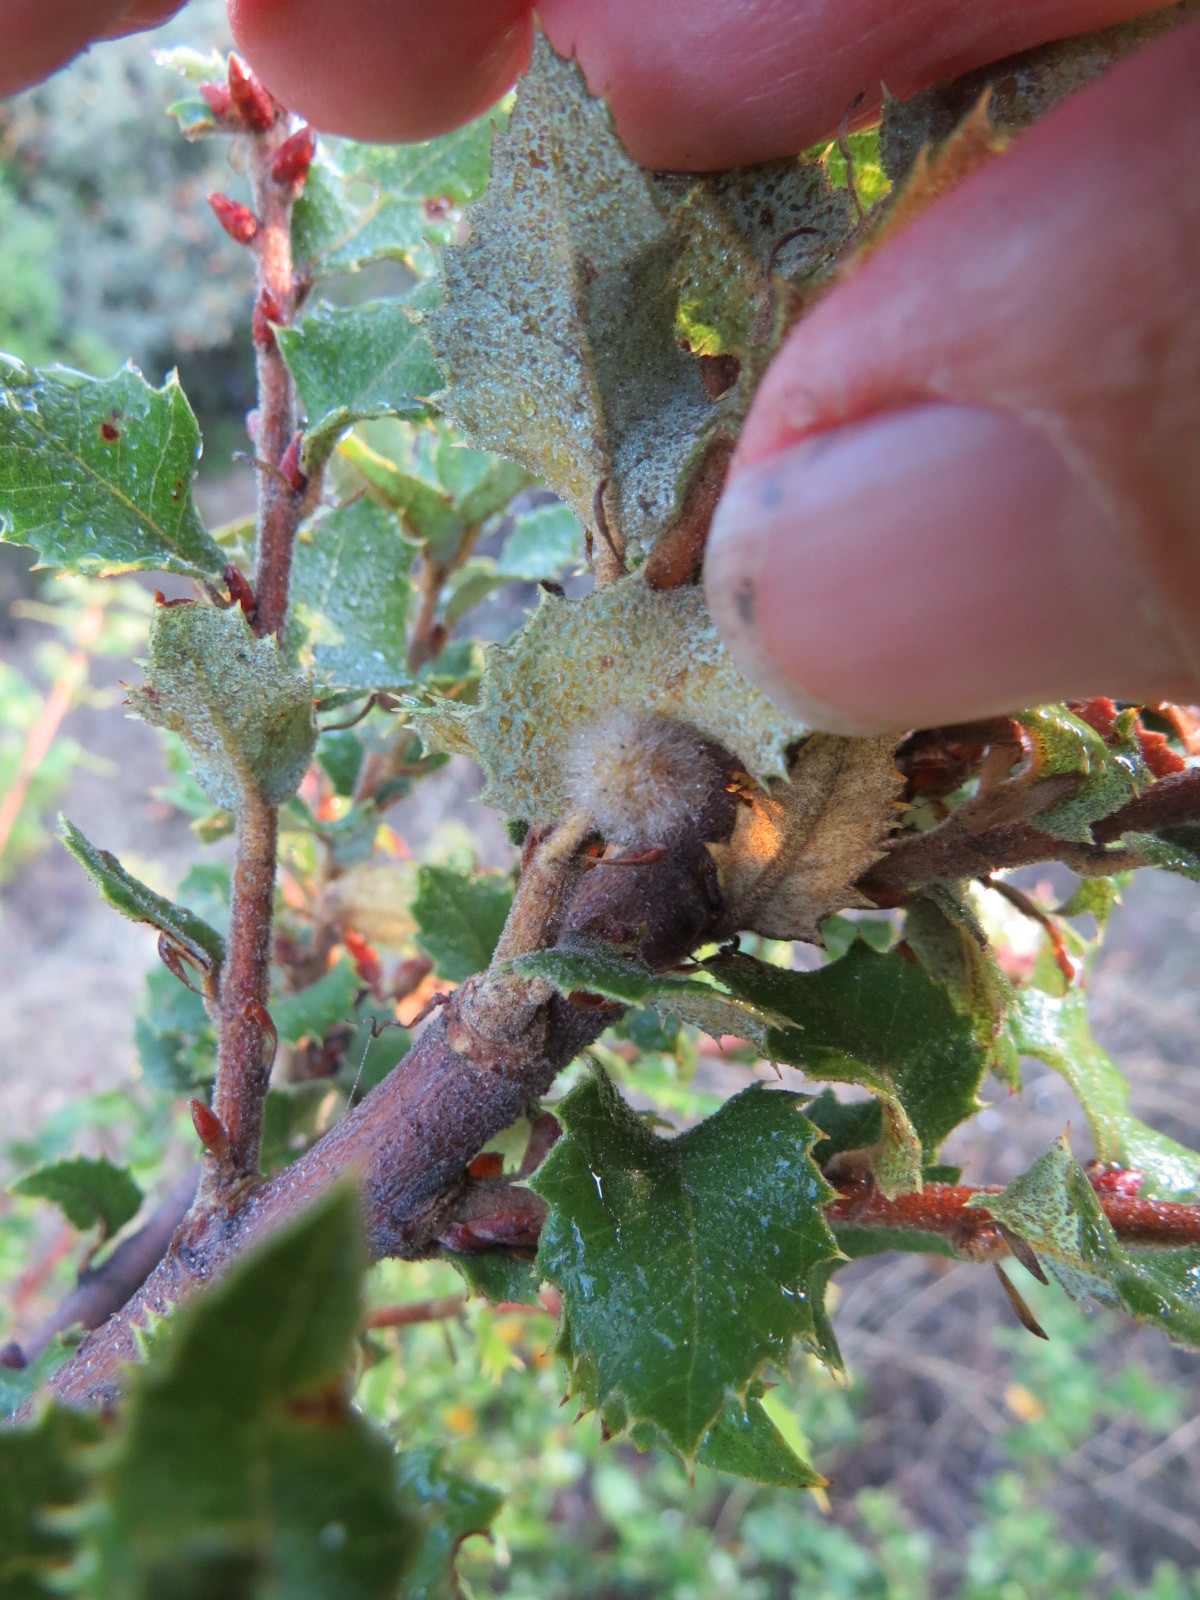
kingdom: Animalia
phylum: Arthropoda
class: Insecta
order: Hymenoptera
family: Cynipidae
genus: Disholandricus
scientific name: Disholandricus
